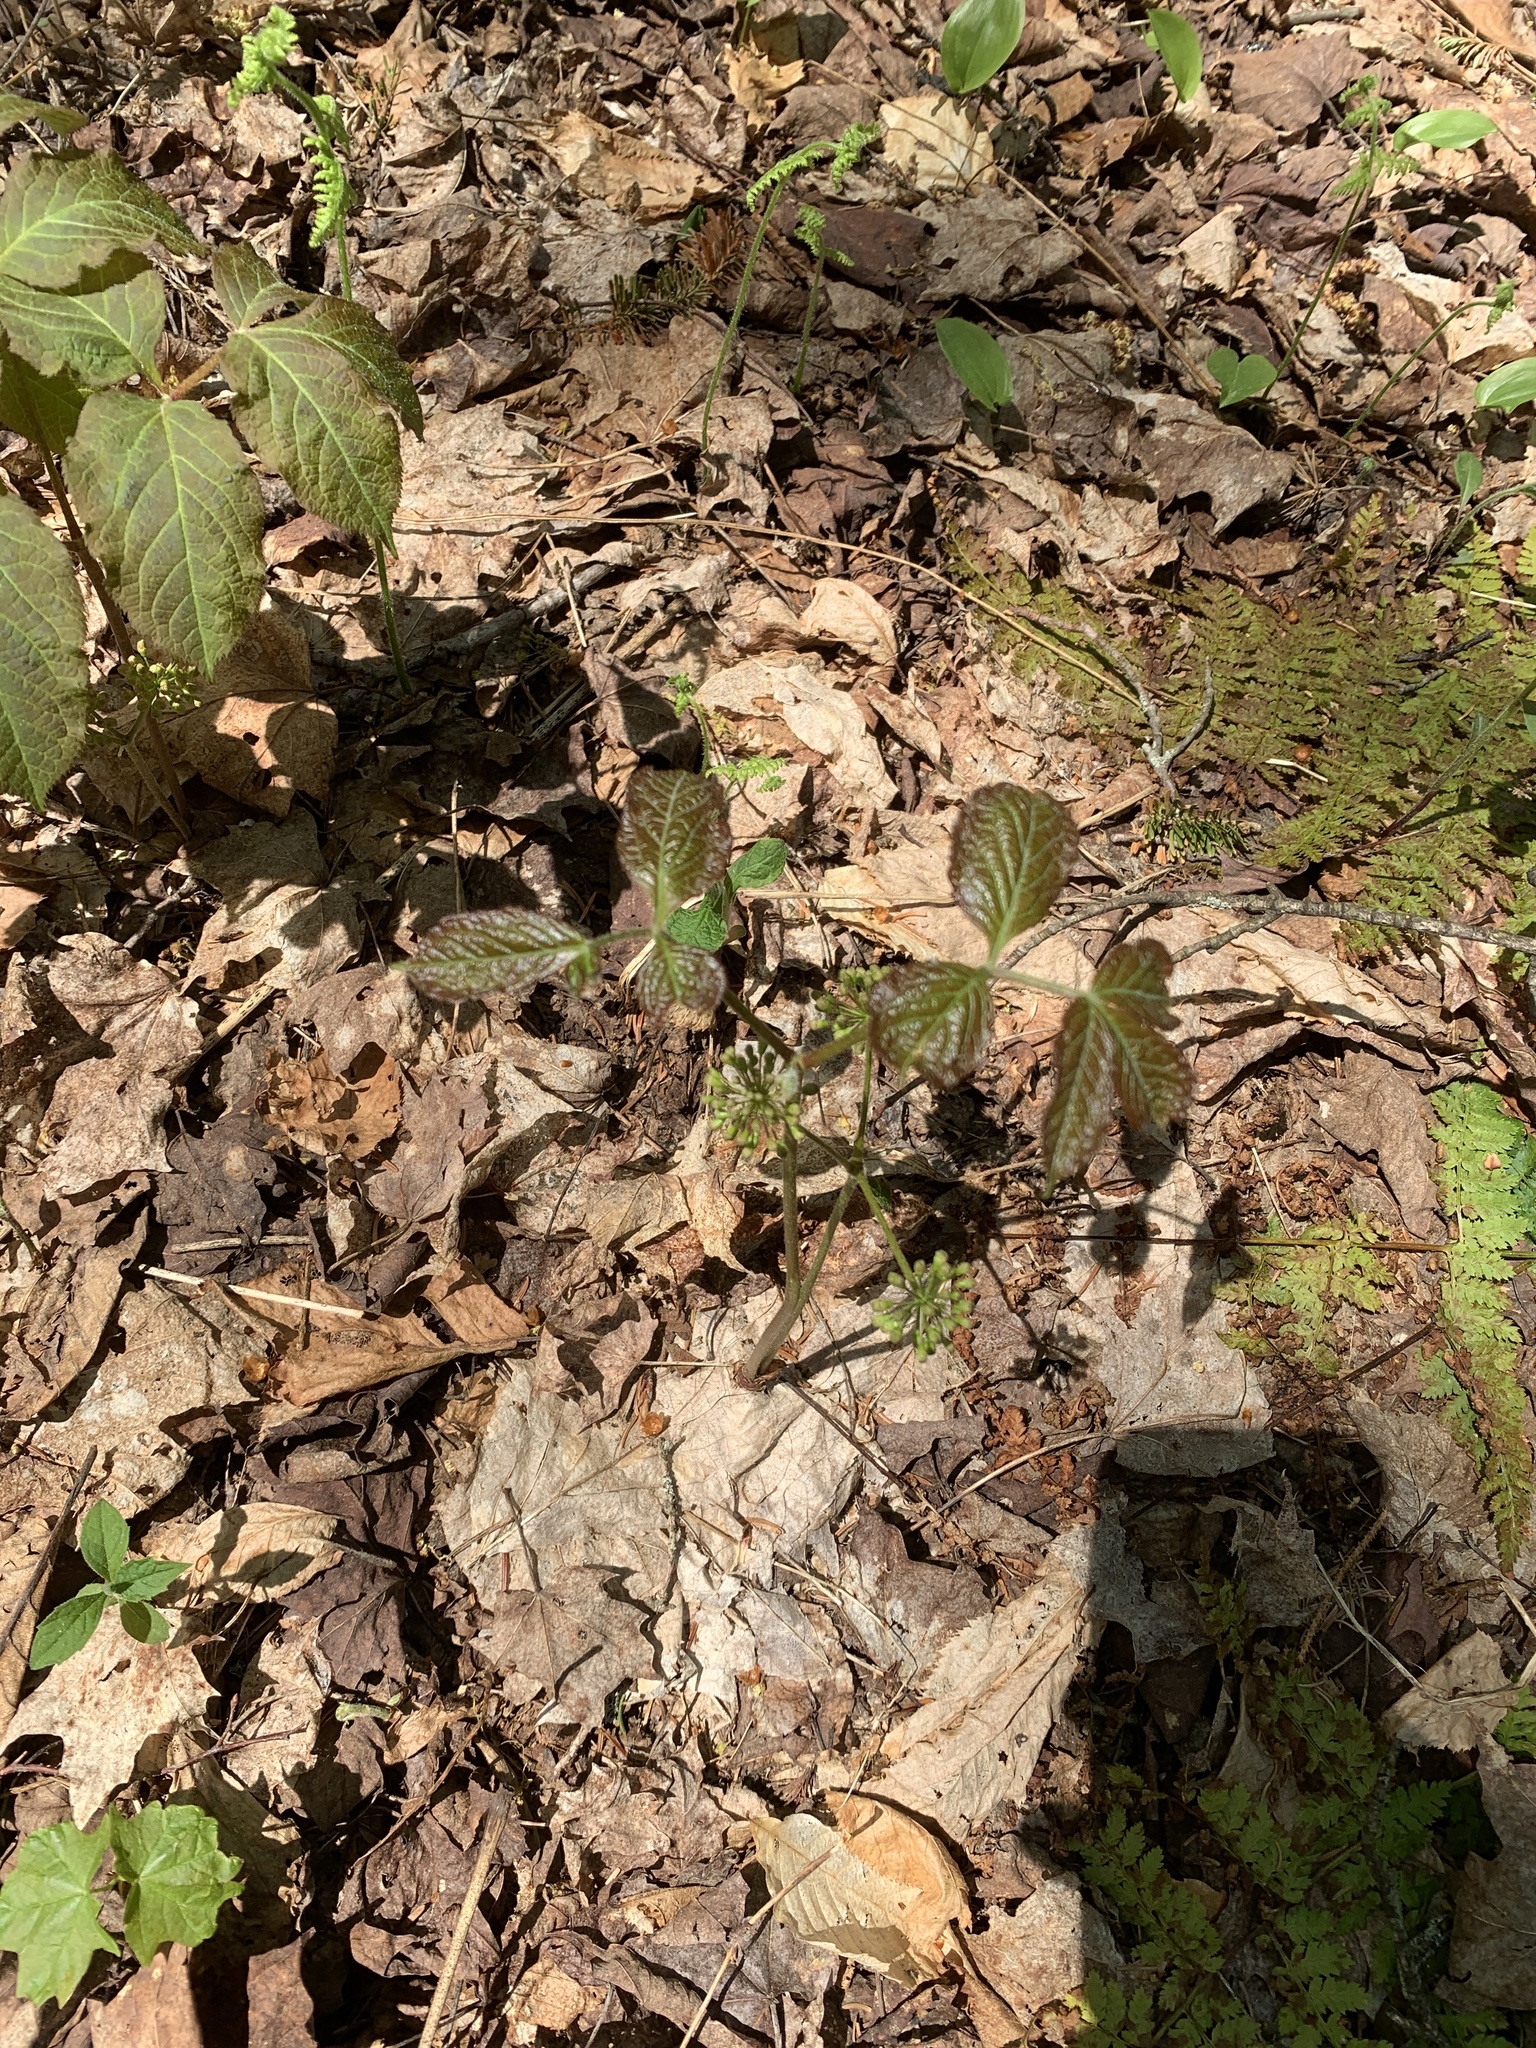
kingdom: Plantae
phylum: Tracheophyta
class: Magnoliopsida
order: Apiales
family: Araliaceae
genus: Aralia
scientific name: Aralia nudicaulis
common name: Wild sarsaparilla
